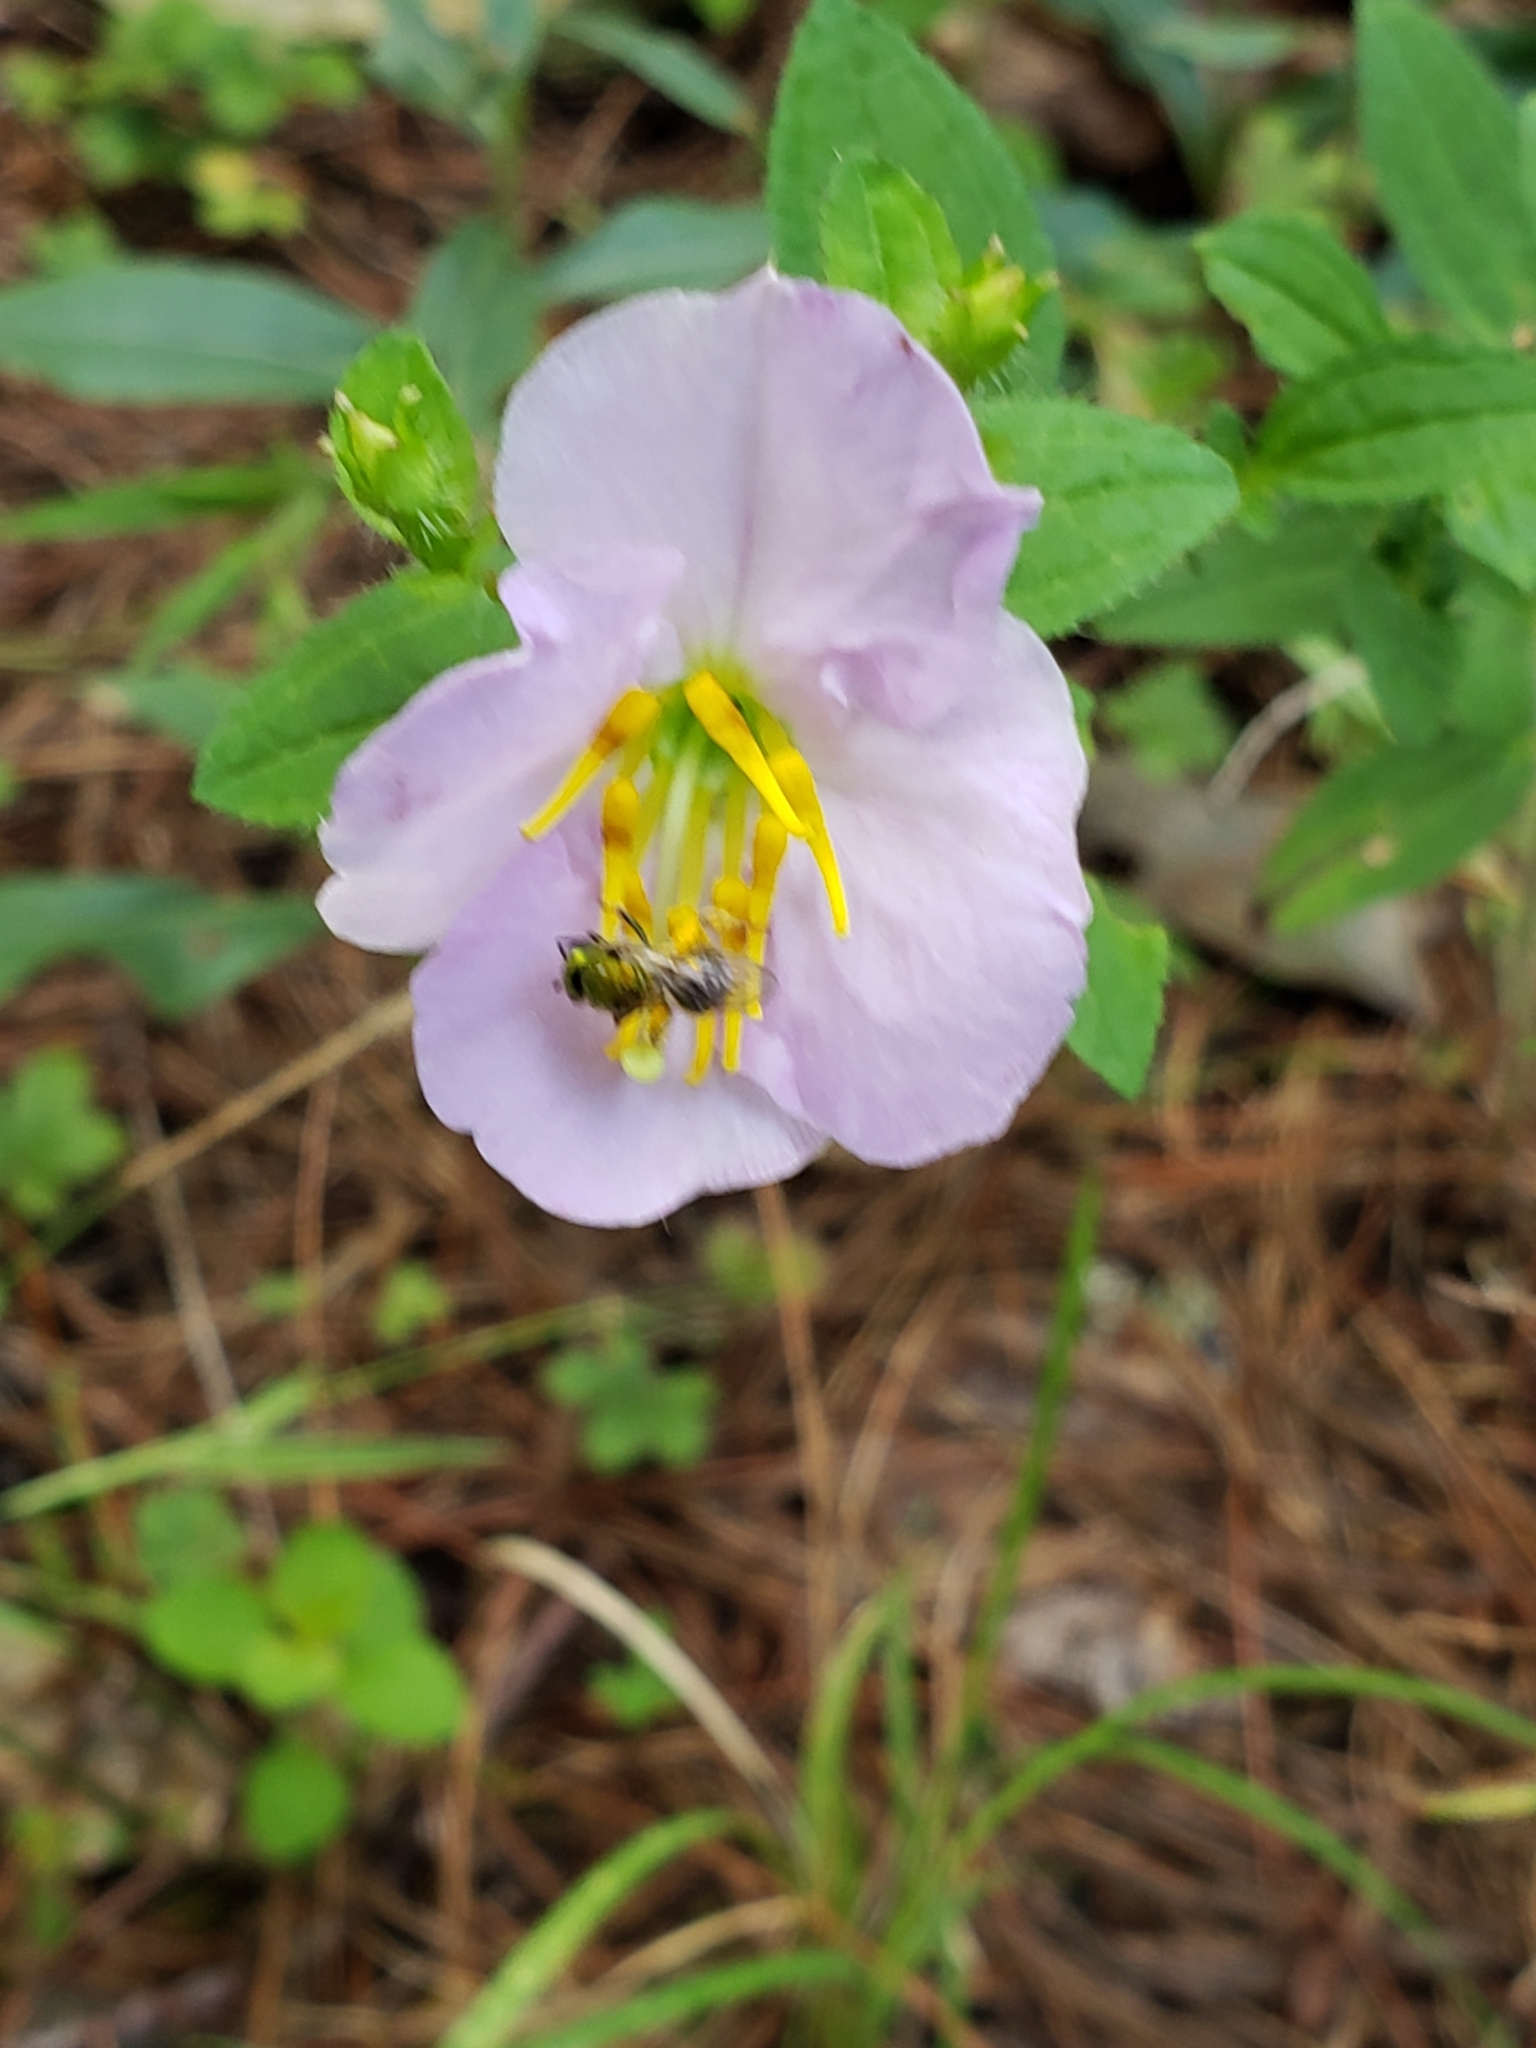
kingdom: Plantae
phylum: Tracheophyta
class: Magnoliopsida
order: Myrtales
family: Melastomataceae
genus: Rhexia
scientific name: Rhexia mariana
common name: Dull meadow-pitcher
